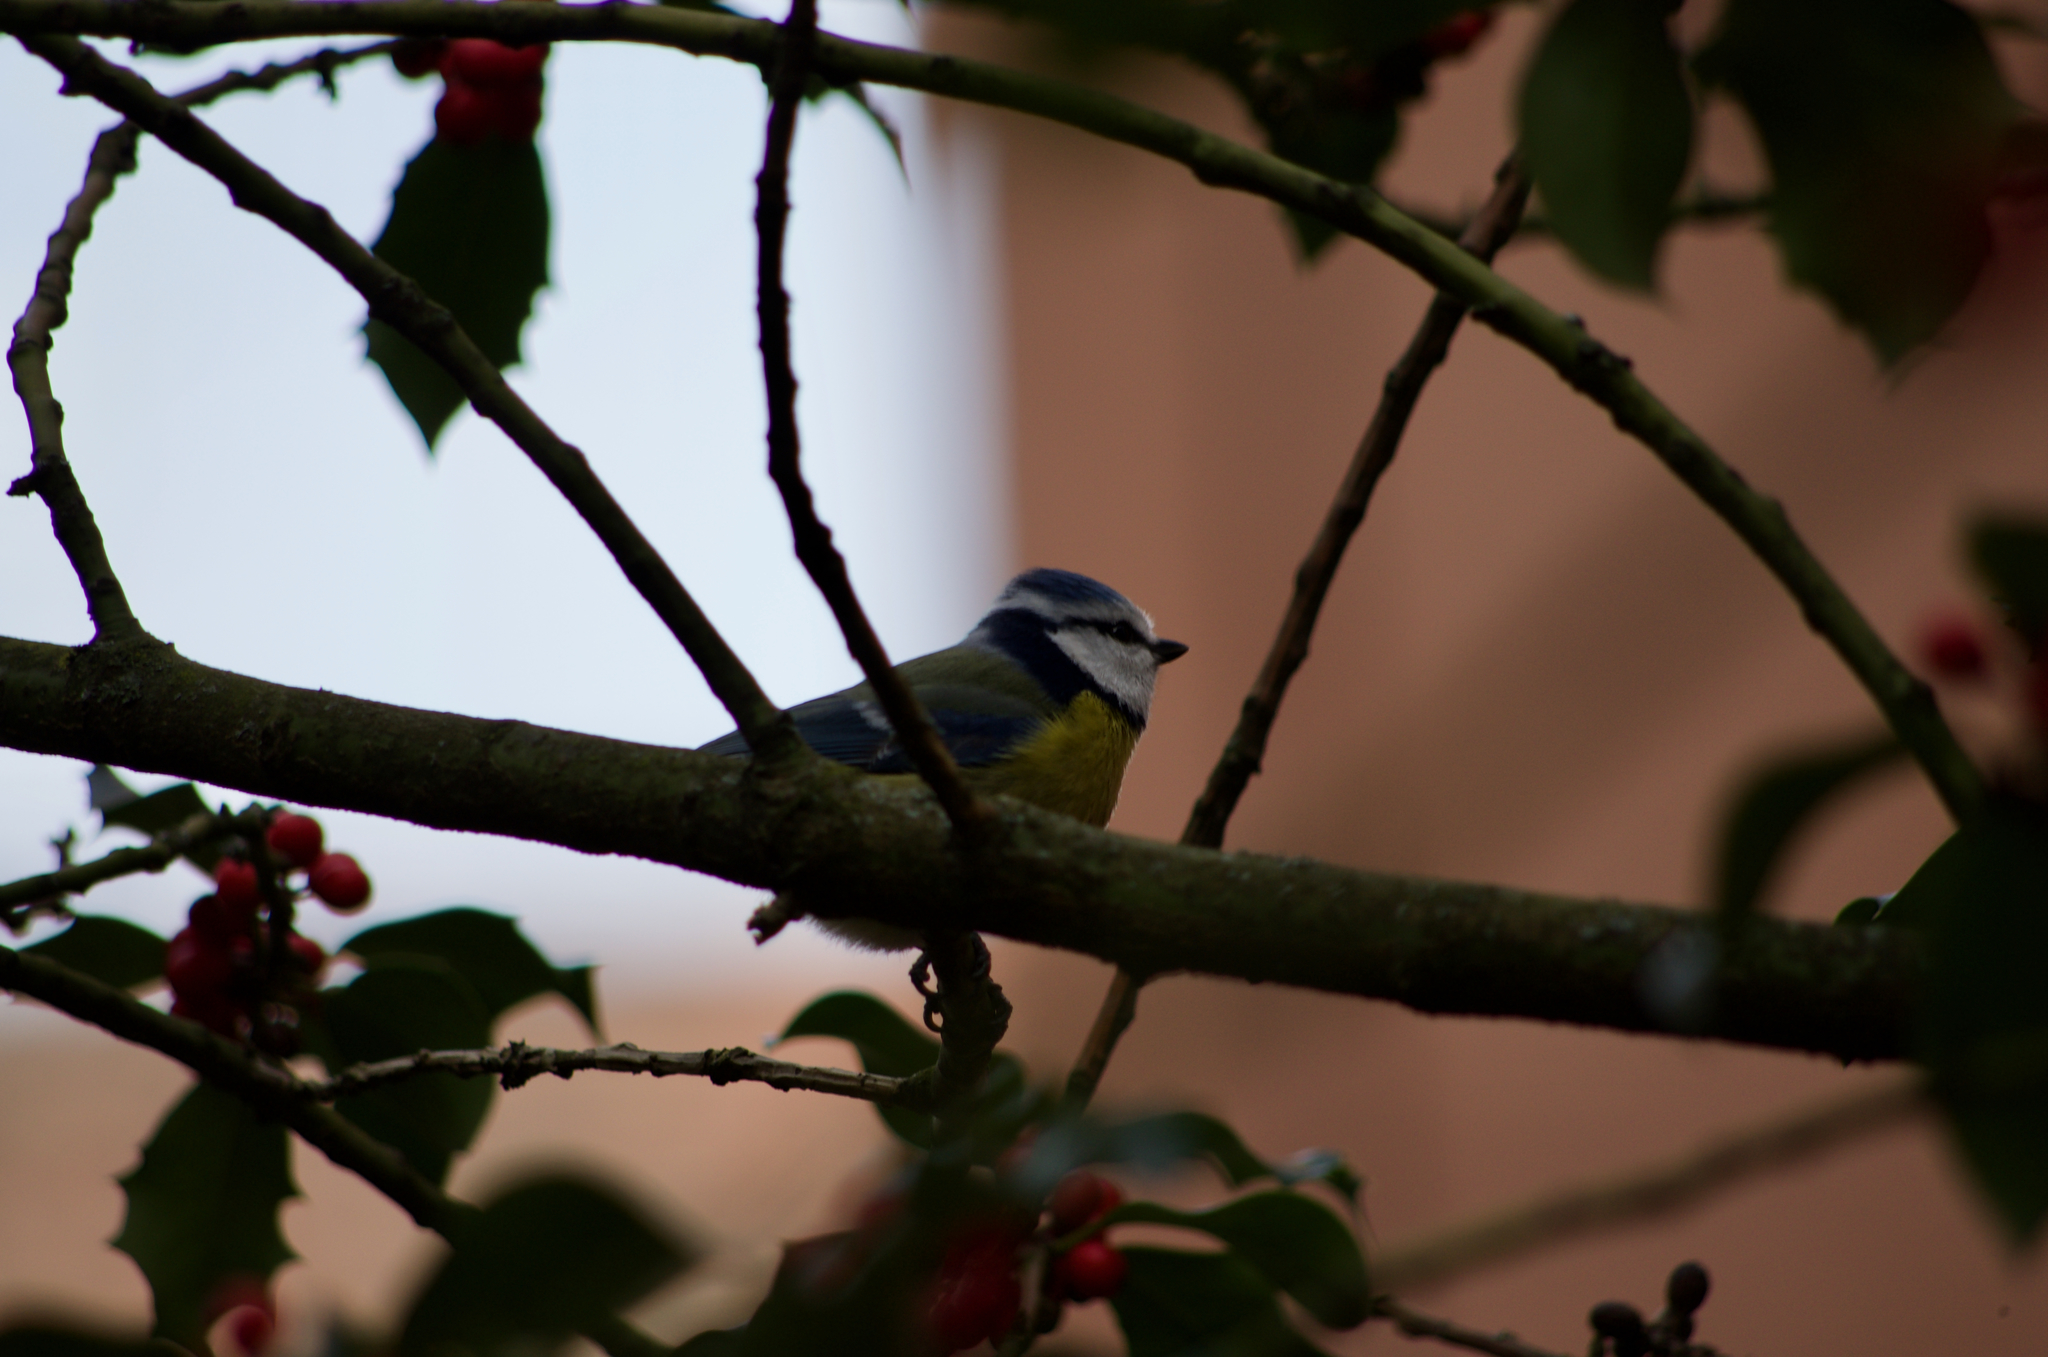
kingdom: Animalia
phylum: Chordata
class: Aves
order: Passeriformes
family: Paridae
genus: Cyanistes
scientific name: Cyanistes caeruleus
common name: Eurasian blue tit
